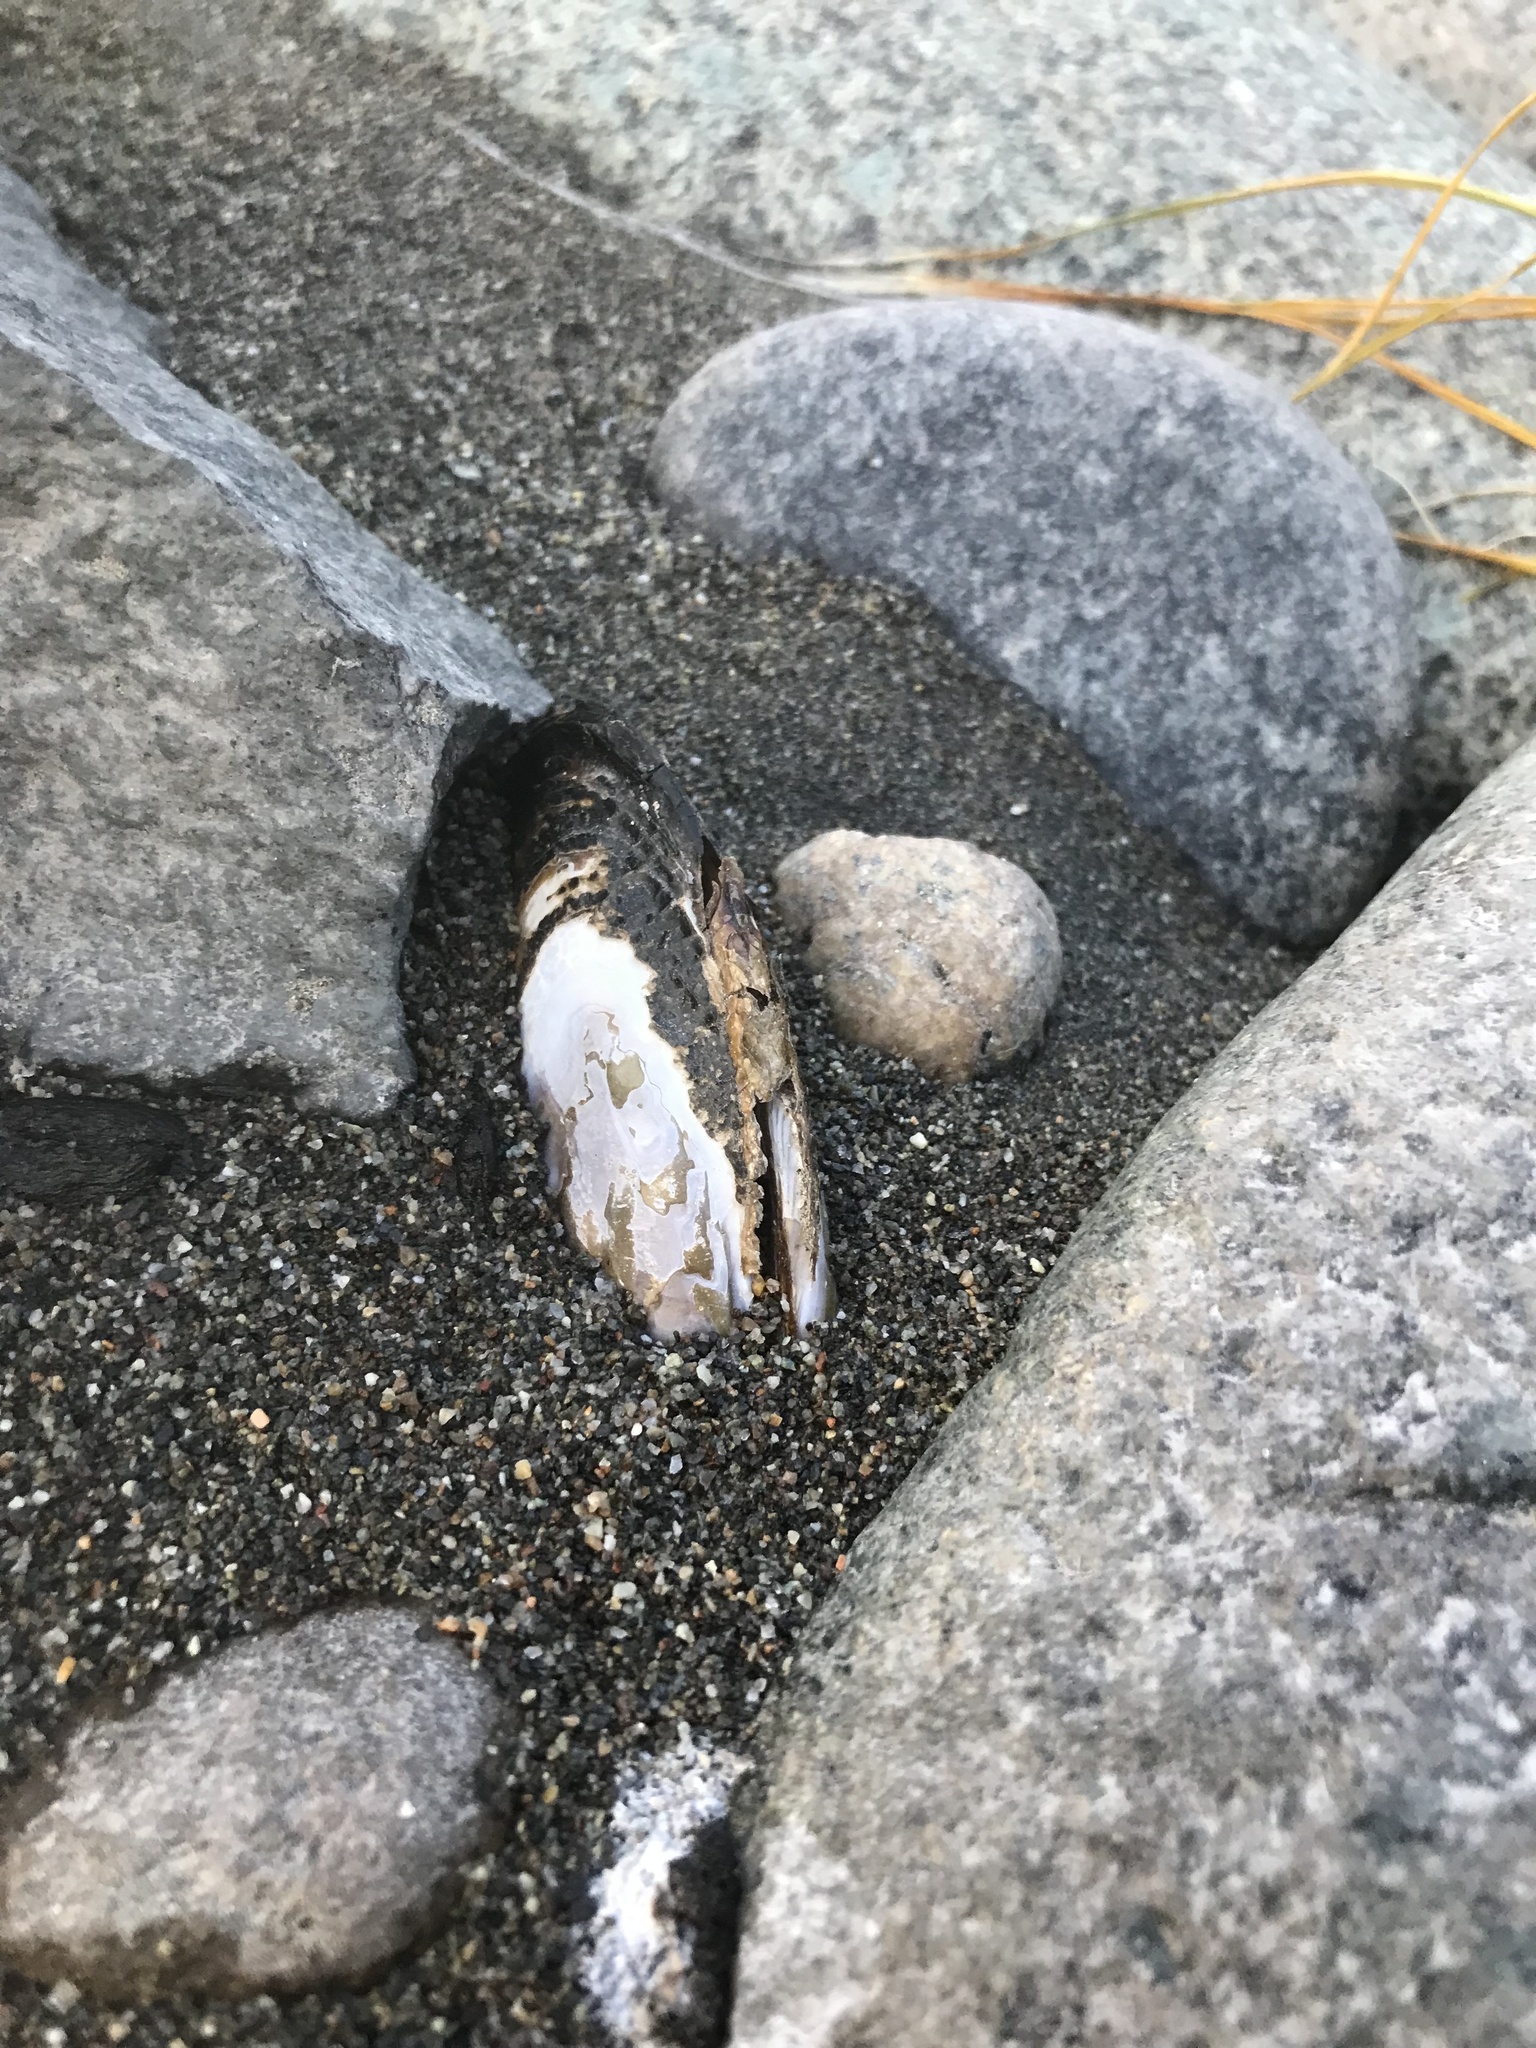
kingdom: Animalia
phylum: Mollusca
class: Bivalvia
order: Unionida
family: Margaritiferidae
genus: Margaritifera
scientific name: Margaritifera falcata
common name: Western pearlshell
